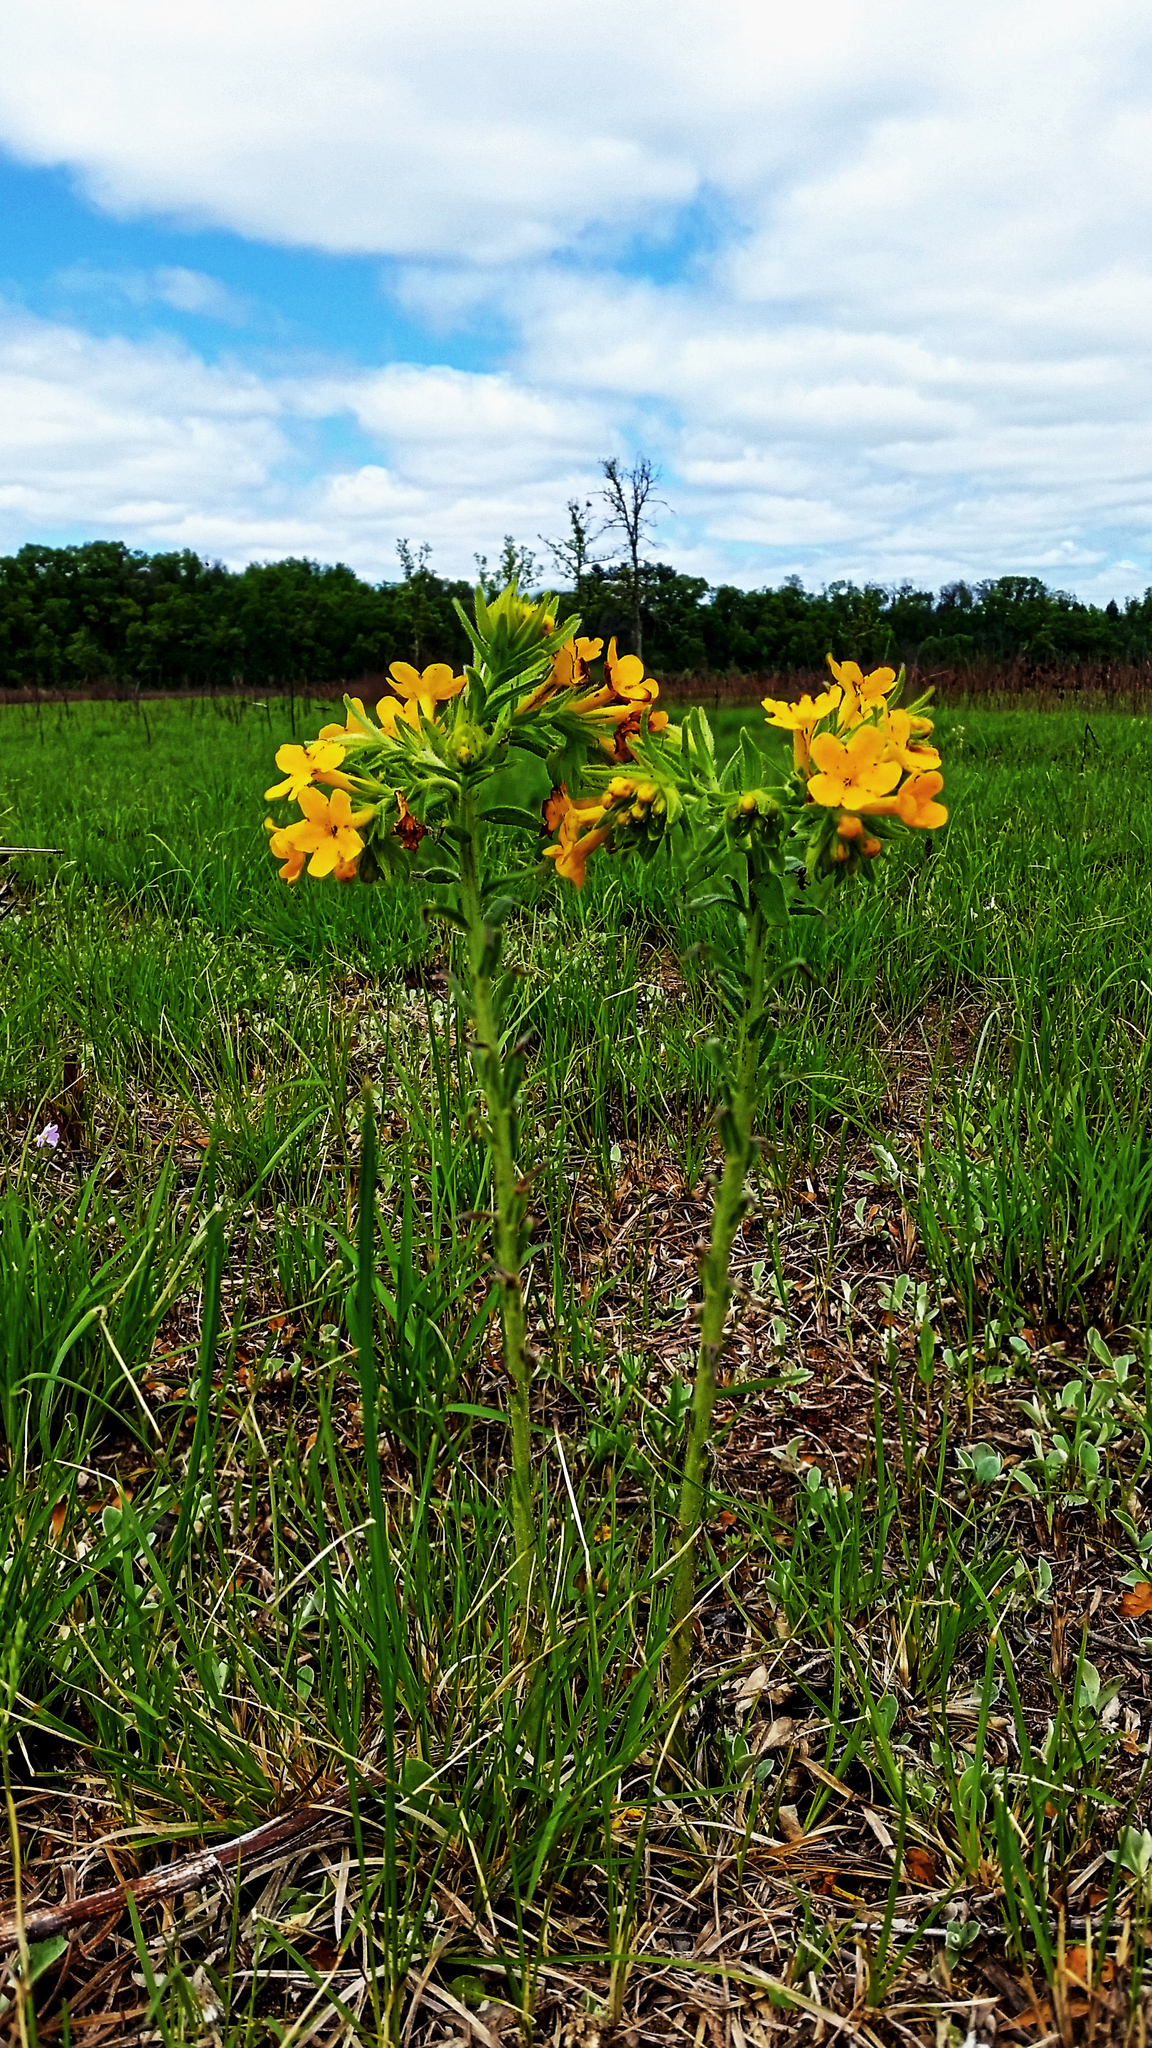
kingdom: Plantae
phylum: Tracheophyta
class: Magnoliopsida
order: Boraginales
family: Boraginaceae
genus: Lithospermum
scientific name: Lithospermum canescens
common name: Hoary puccoon
